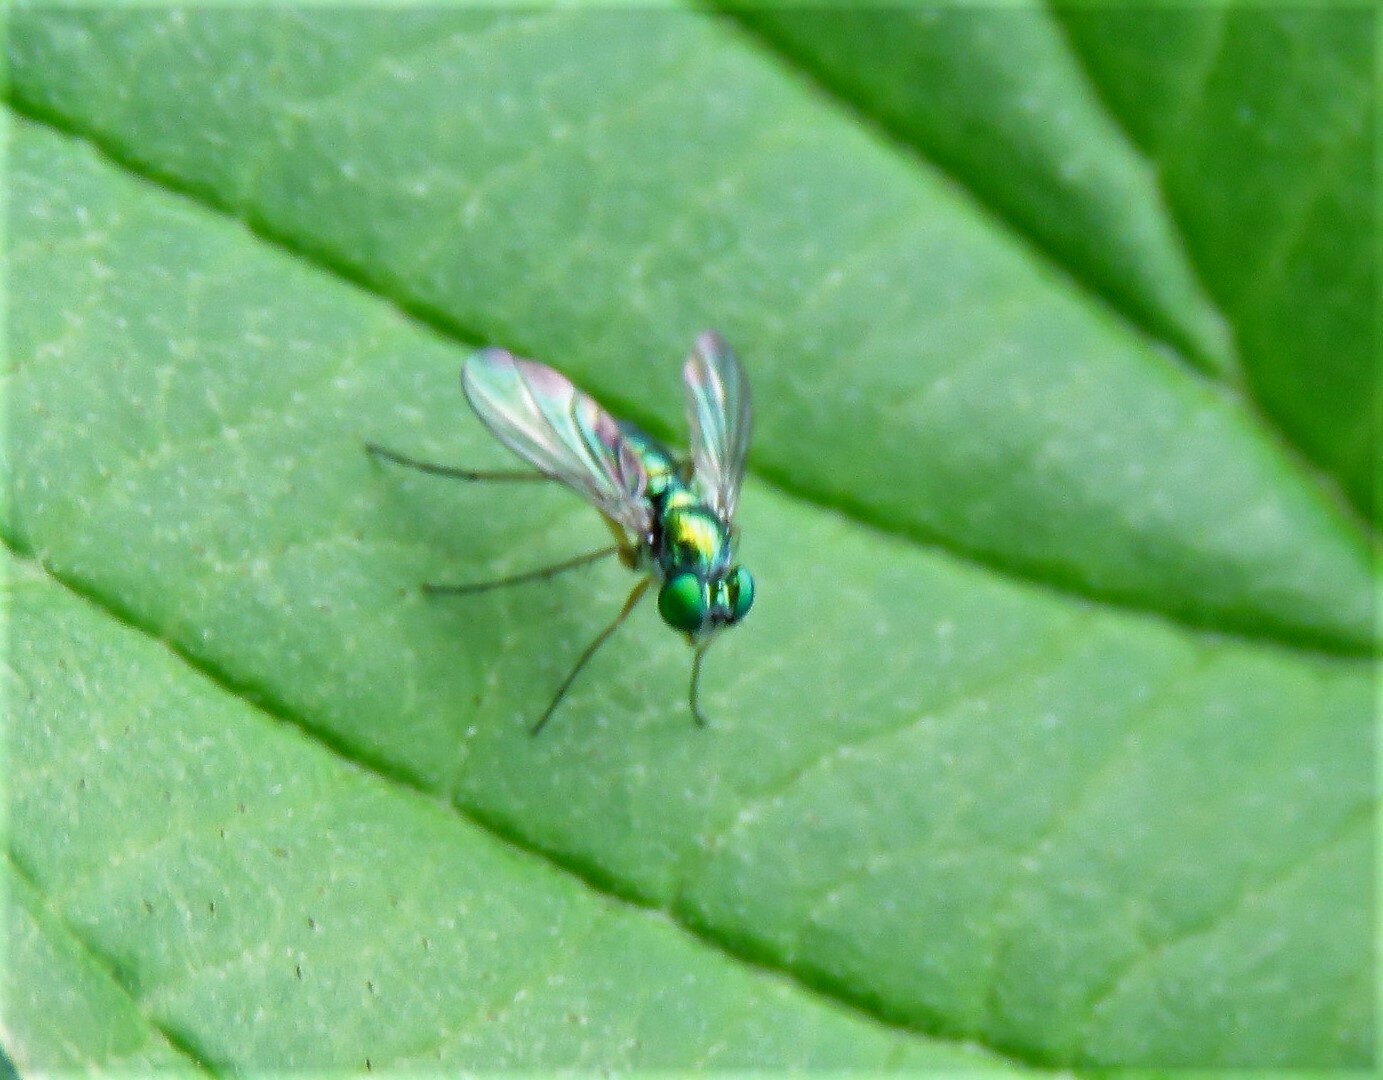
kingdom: Animalia
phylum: Arthropoda
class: Insecta
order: Diptera
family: Dolichopodidae
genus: Condylostylus
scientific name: Condylostylus caudatus
